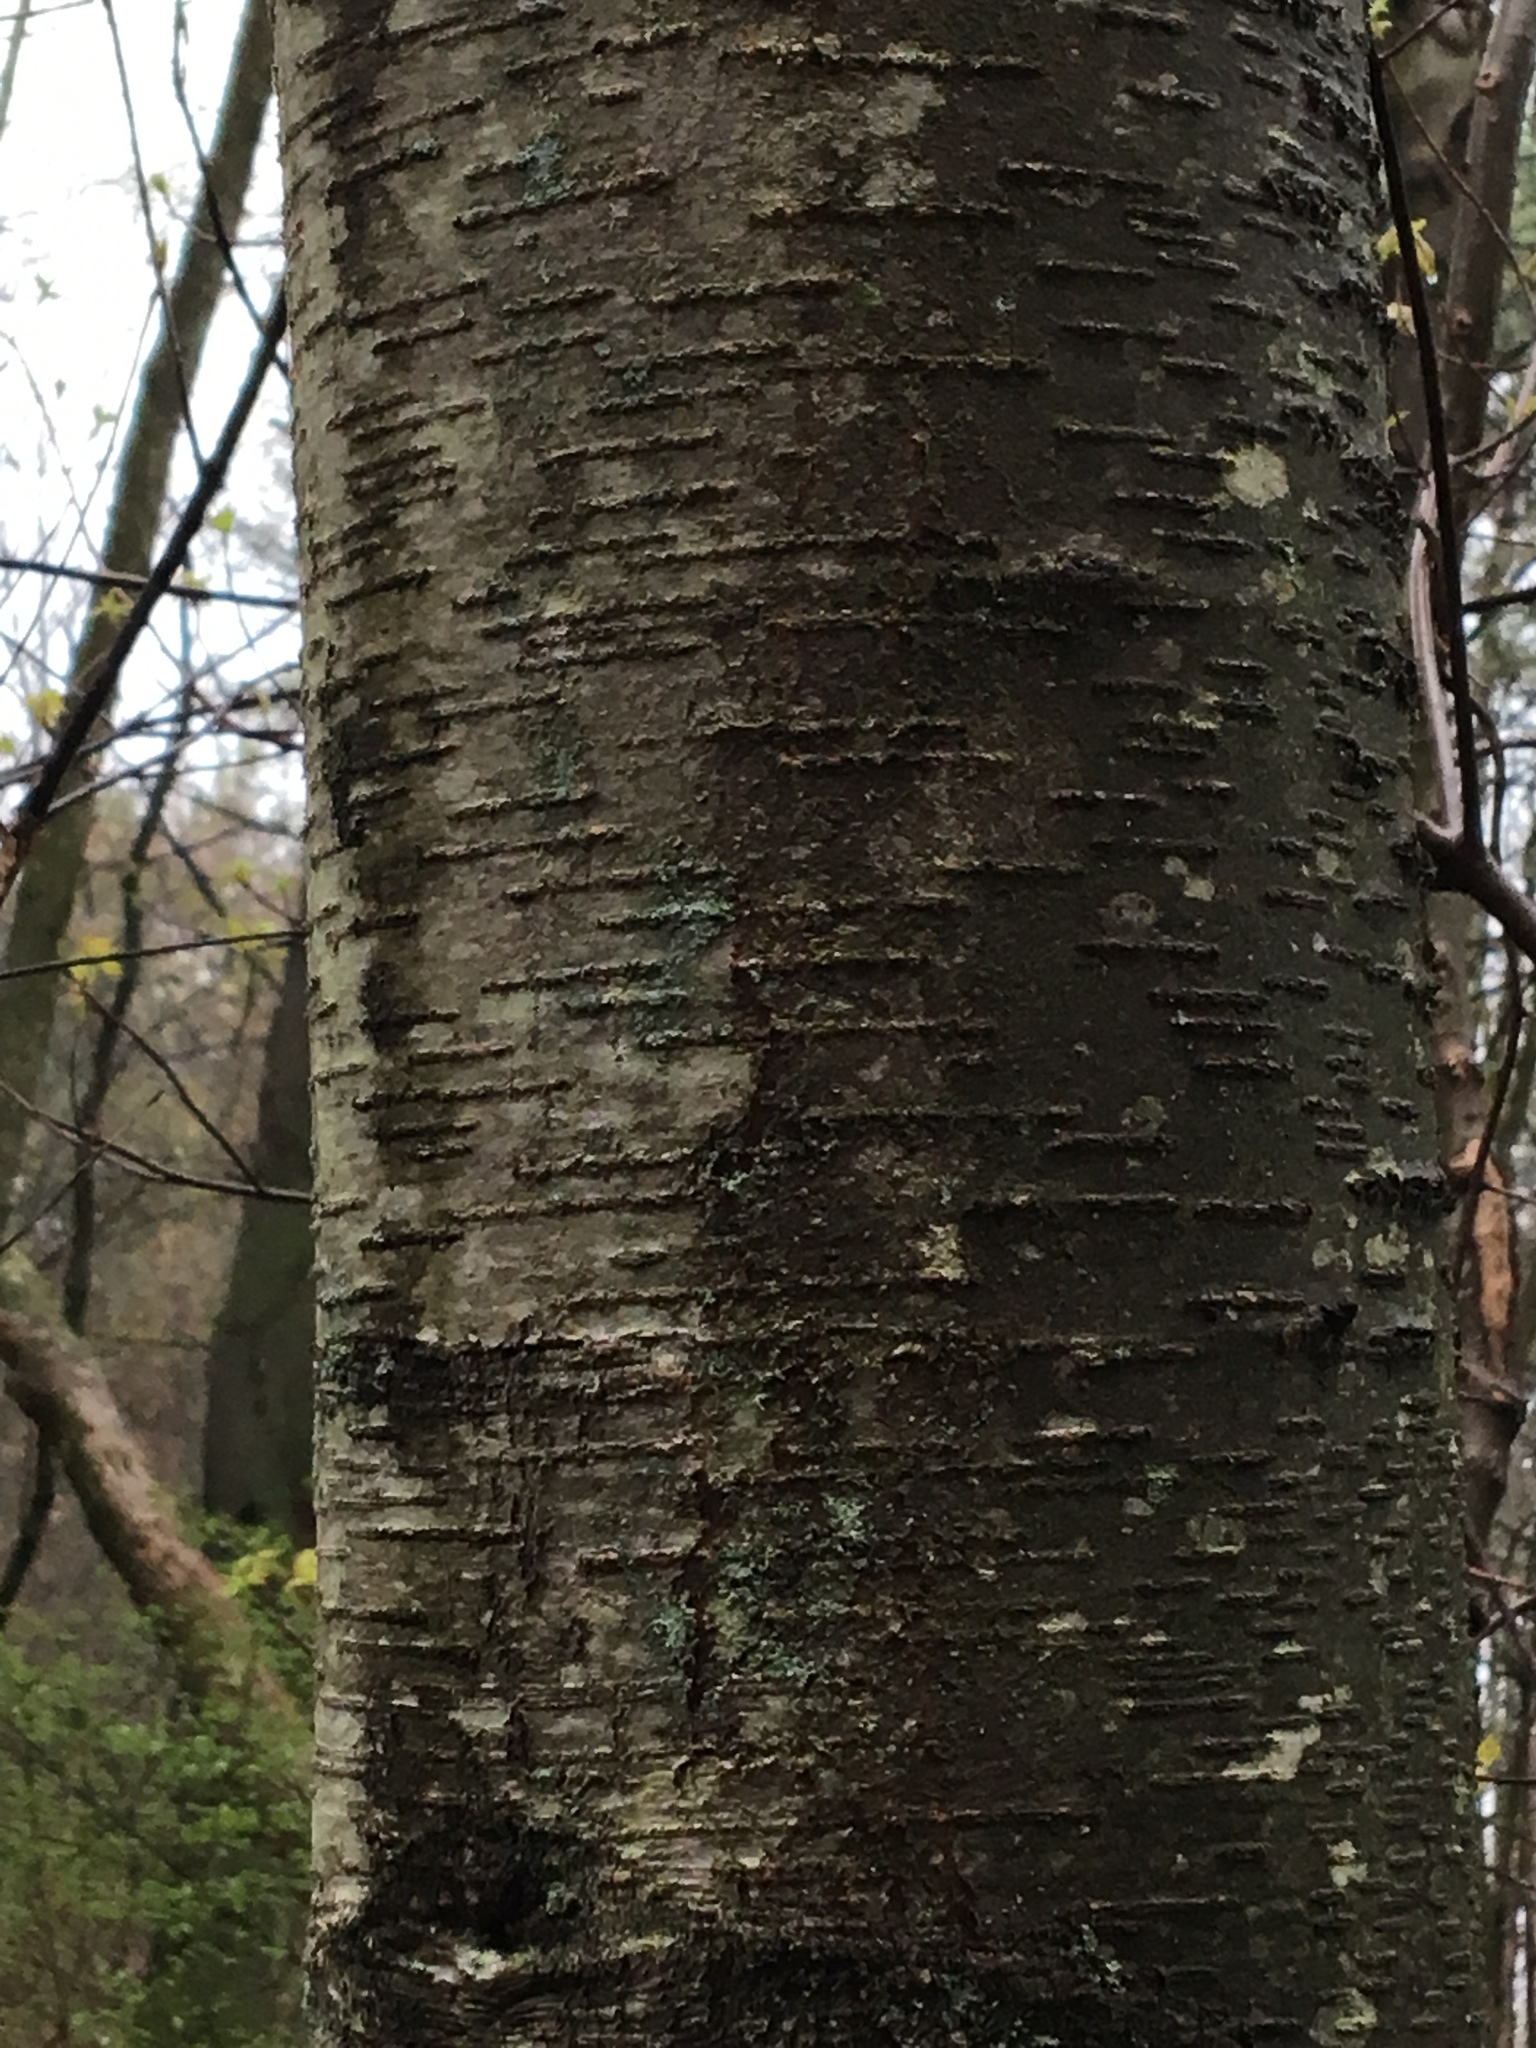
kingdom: Plantae
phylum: Tracheophyta
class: Magnoliopsida
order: Fagales
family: Betulaceae
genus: Betula
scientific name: Betula lenta
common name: Black birch
